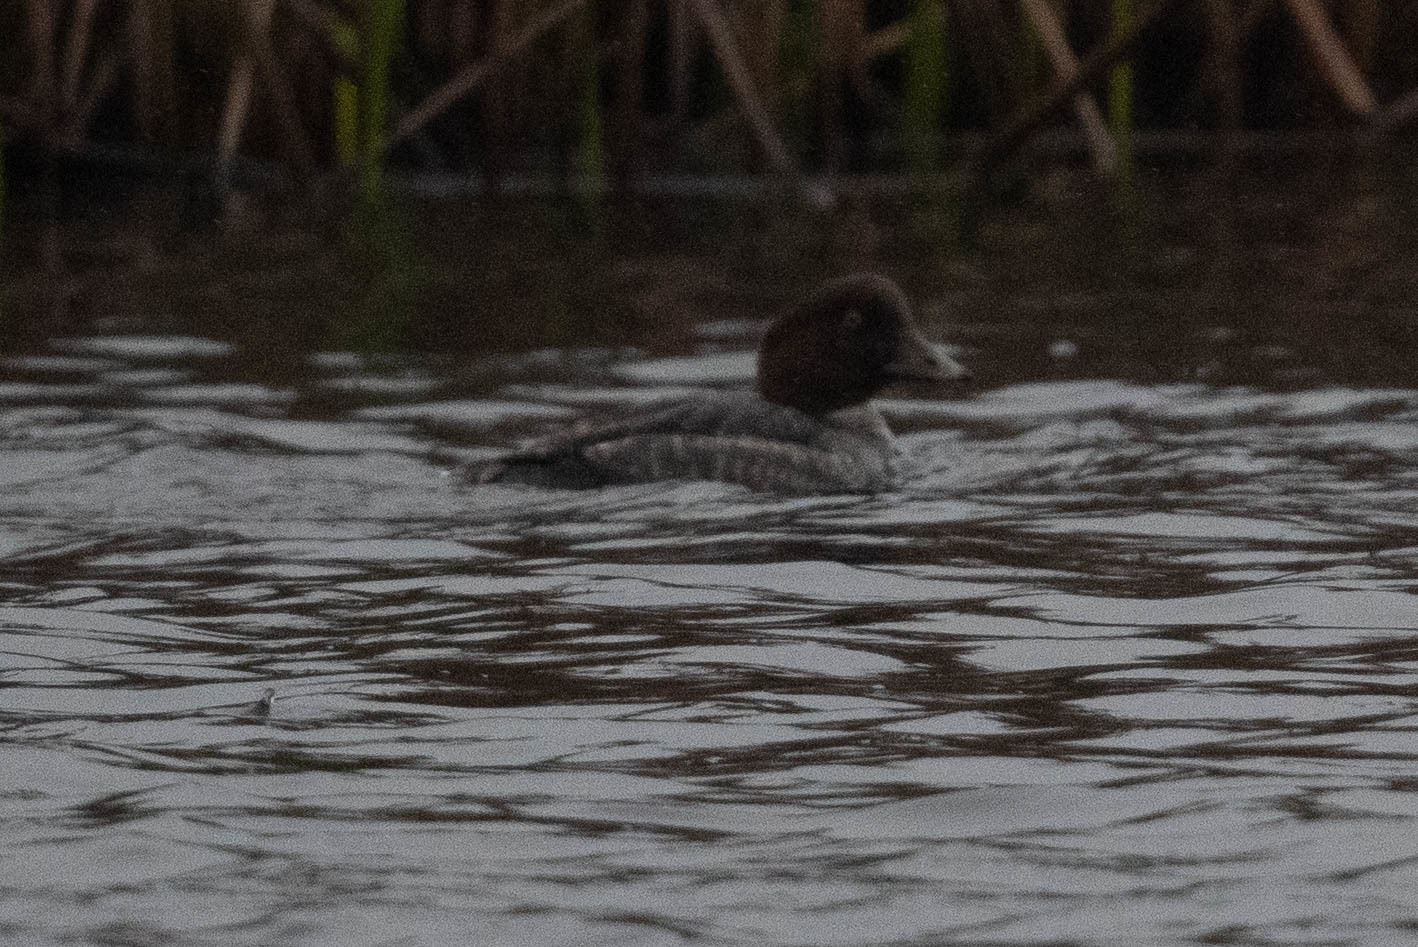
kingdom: Animalia
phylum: Chordata
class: Aves
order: Anseriformes
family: Anatidae
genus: Bucephala
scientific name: Bucephala clangula
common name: Common goldeneye
